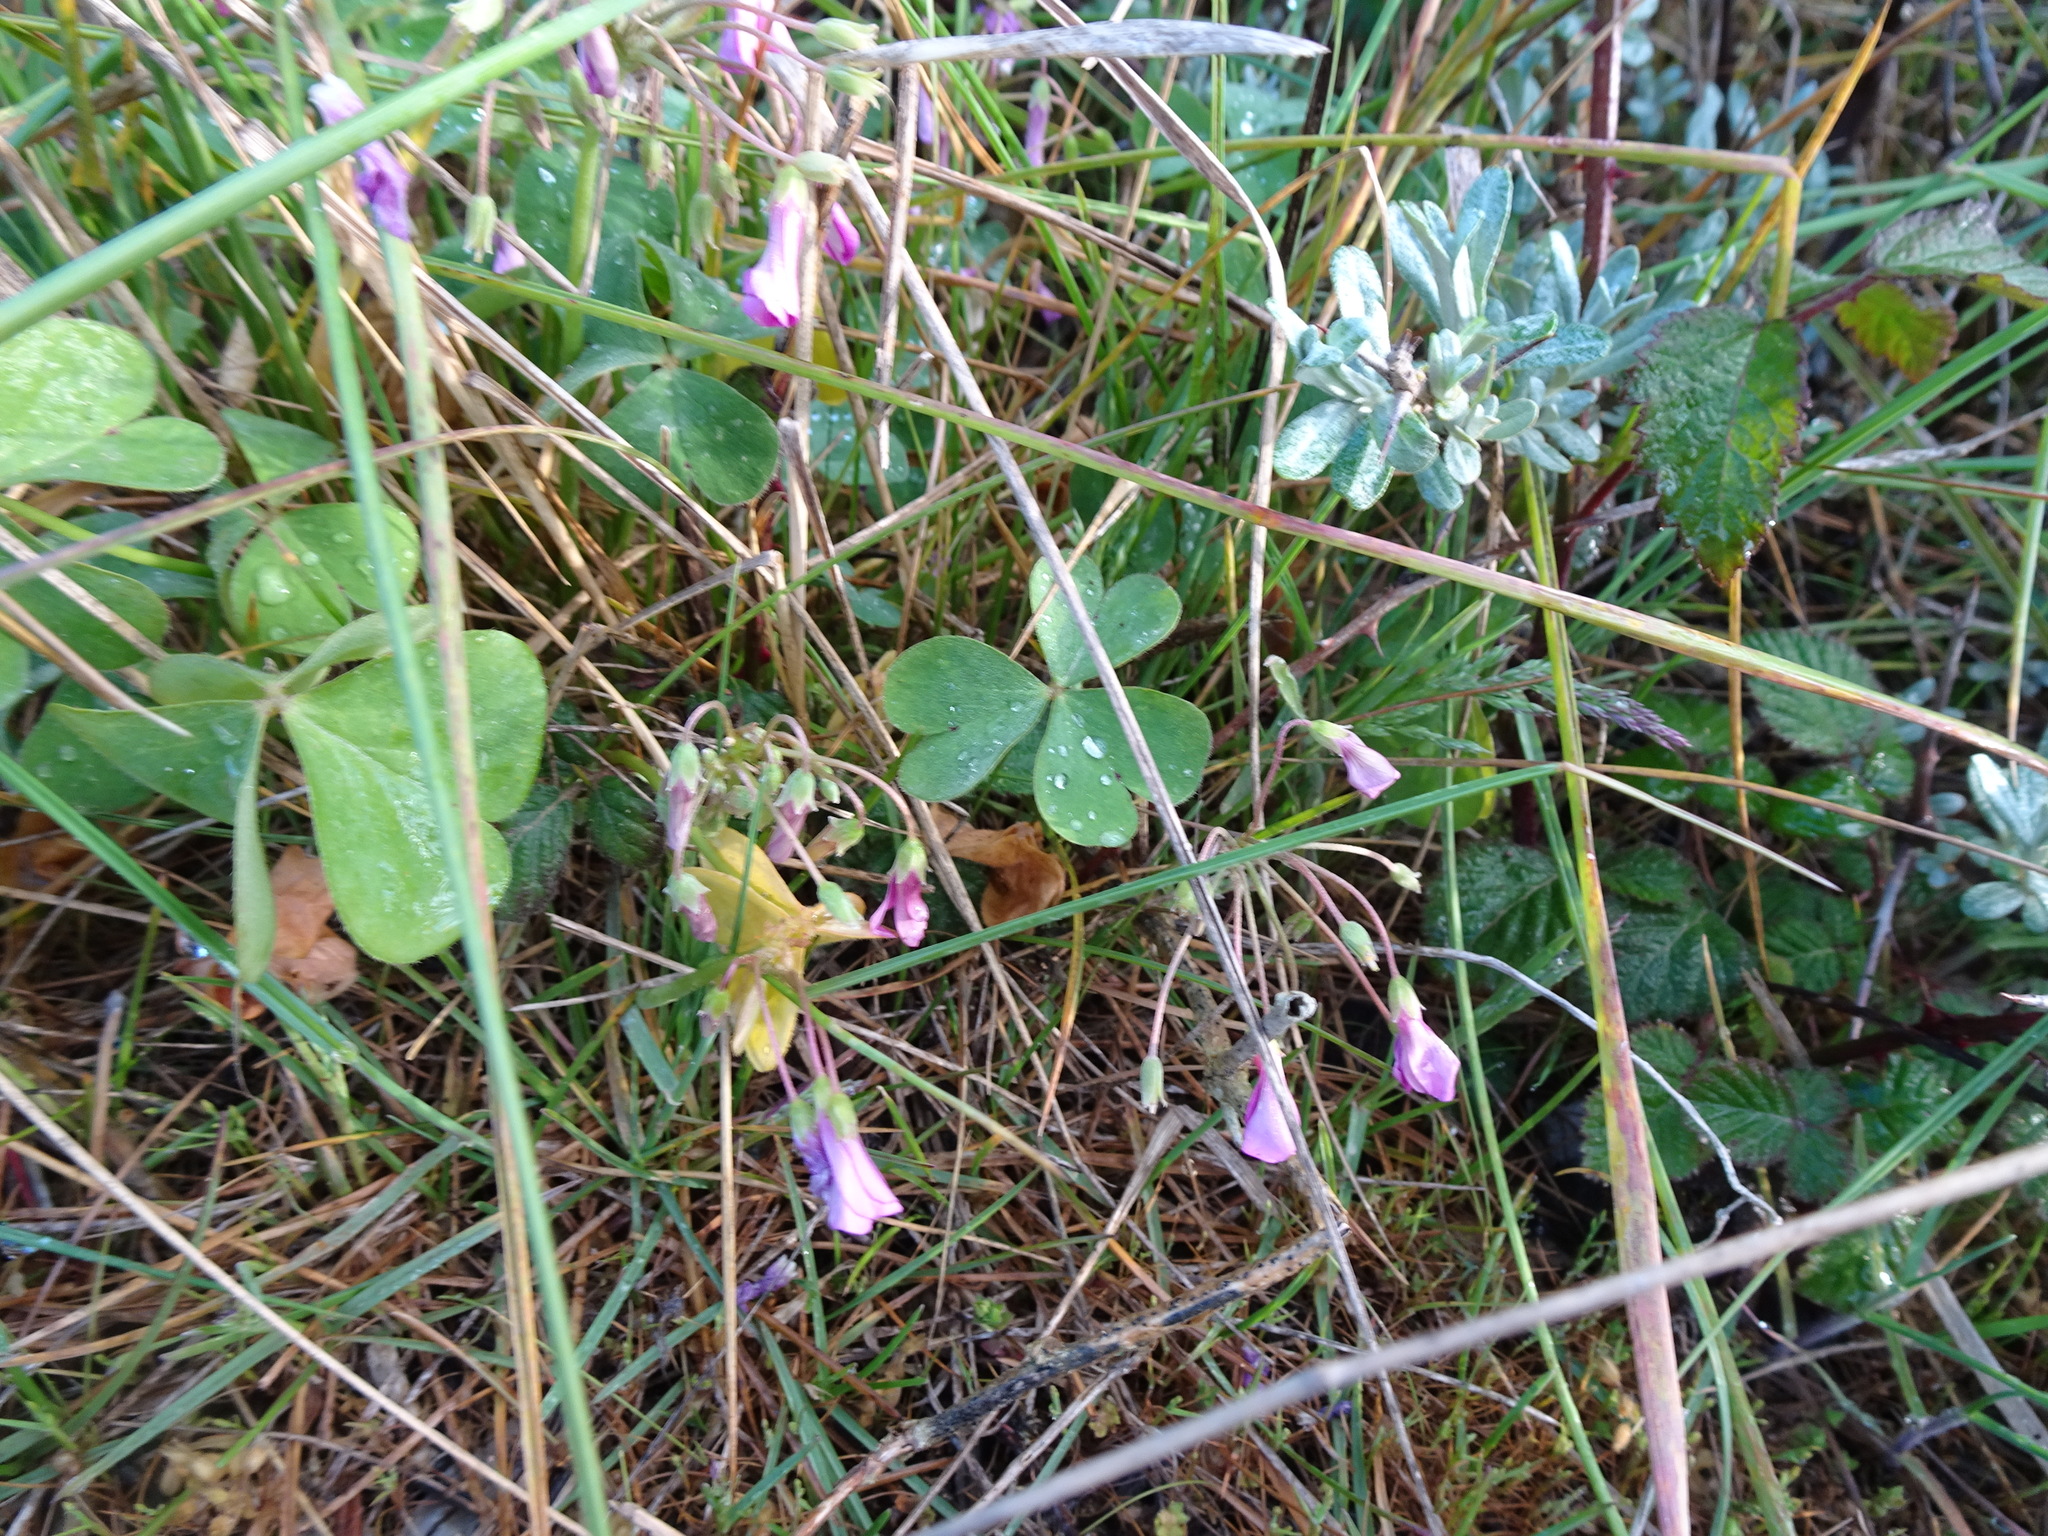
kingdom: Plantae
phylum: Tracheophyta
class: Magnoliopsida
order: Oxalidales
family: Oxalidaceae
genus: Oxalis
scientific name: Oxalis articulata
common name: Pink-sorrel
